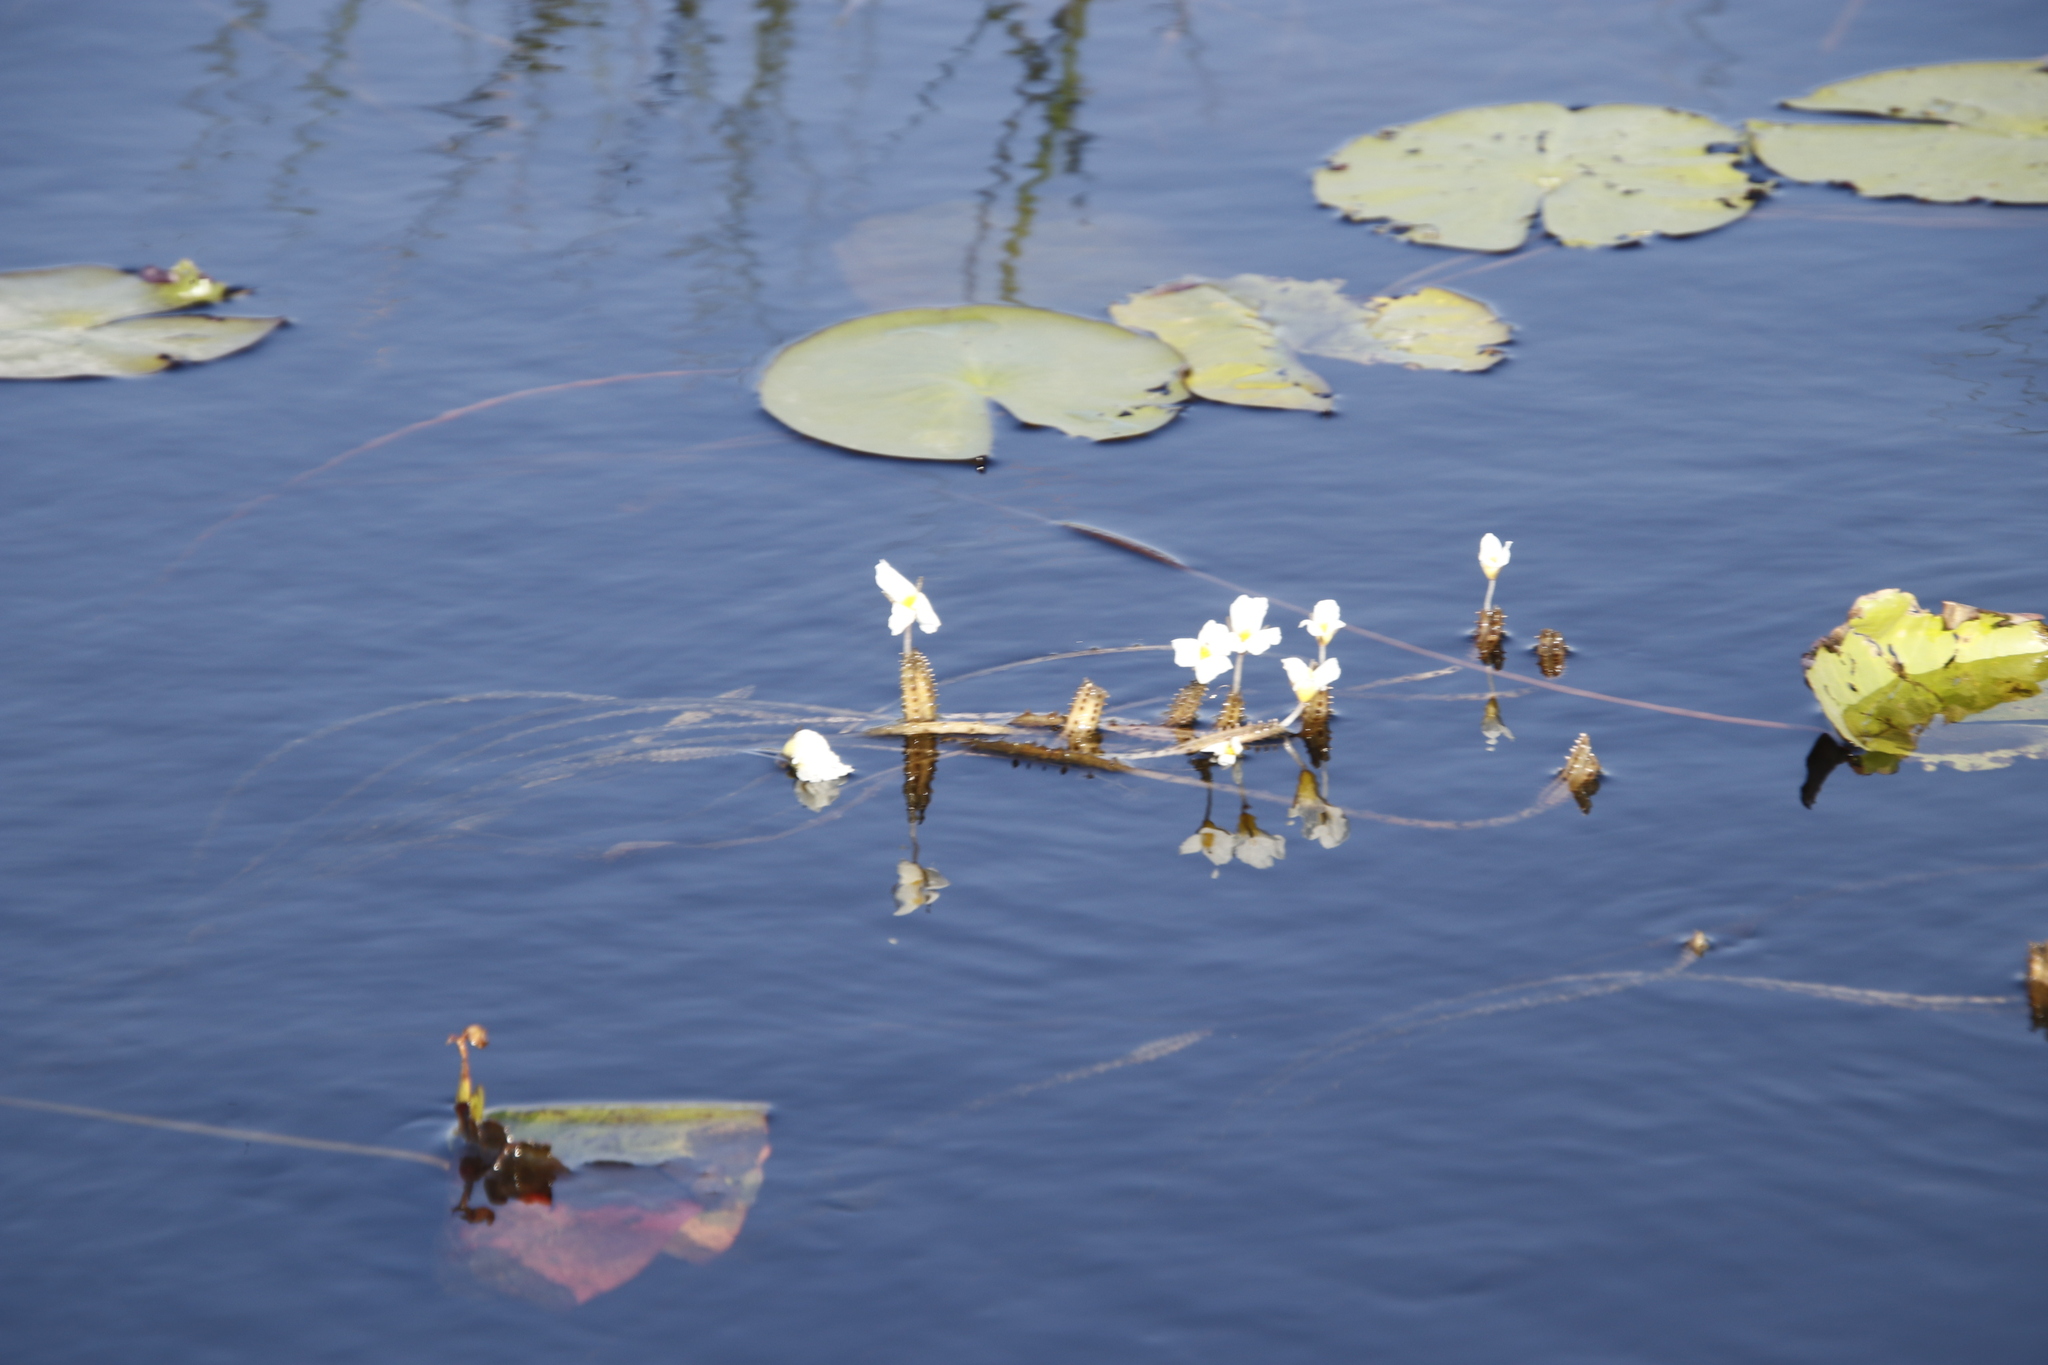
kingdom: Plantae
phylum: Tracheophyta
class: Liliopsida
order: Alismatales
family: Hydrocharitaceae
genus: Ottelia
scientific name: Ottelia muricata
